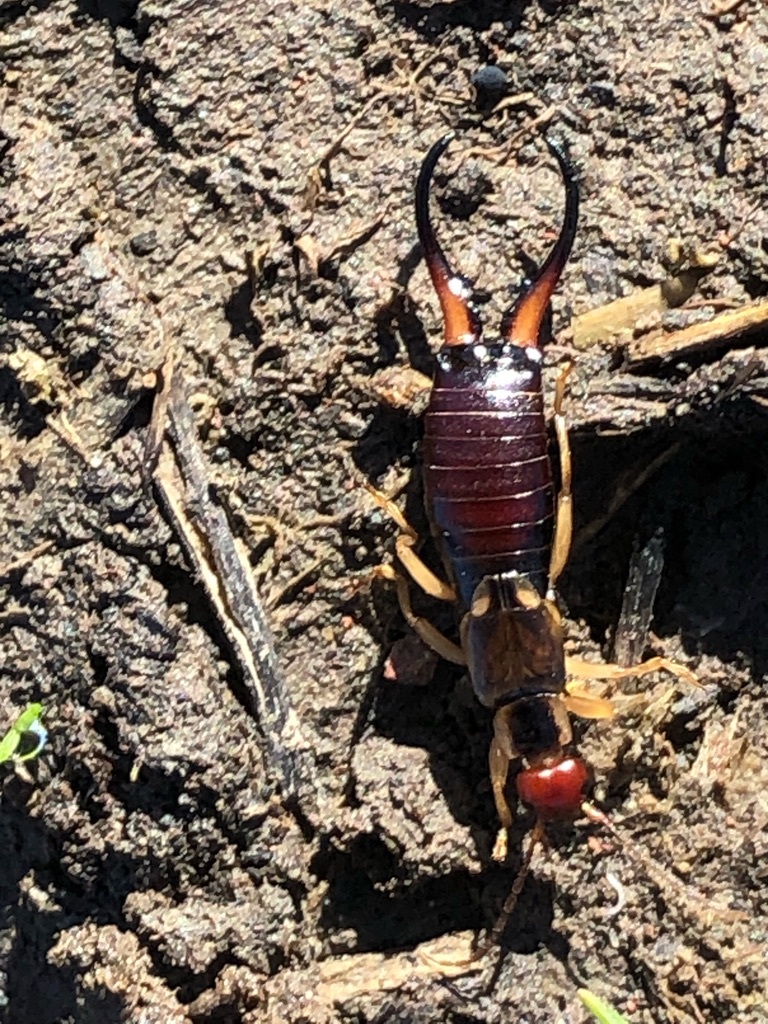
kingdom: Animalia
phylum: Arthropoda
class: Insecta
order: Dermaptera
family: Forficulidae
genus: Forficula
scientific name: Forficula
